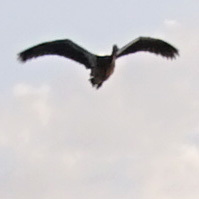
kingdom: Animalia
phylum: Chordata
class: Aves
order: Anseriformes
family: Anatidae
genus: Alopochen
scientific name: Alopochen aegyptiaca
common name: Egyptian goose
